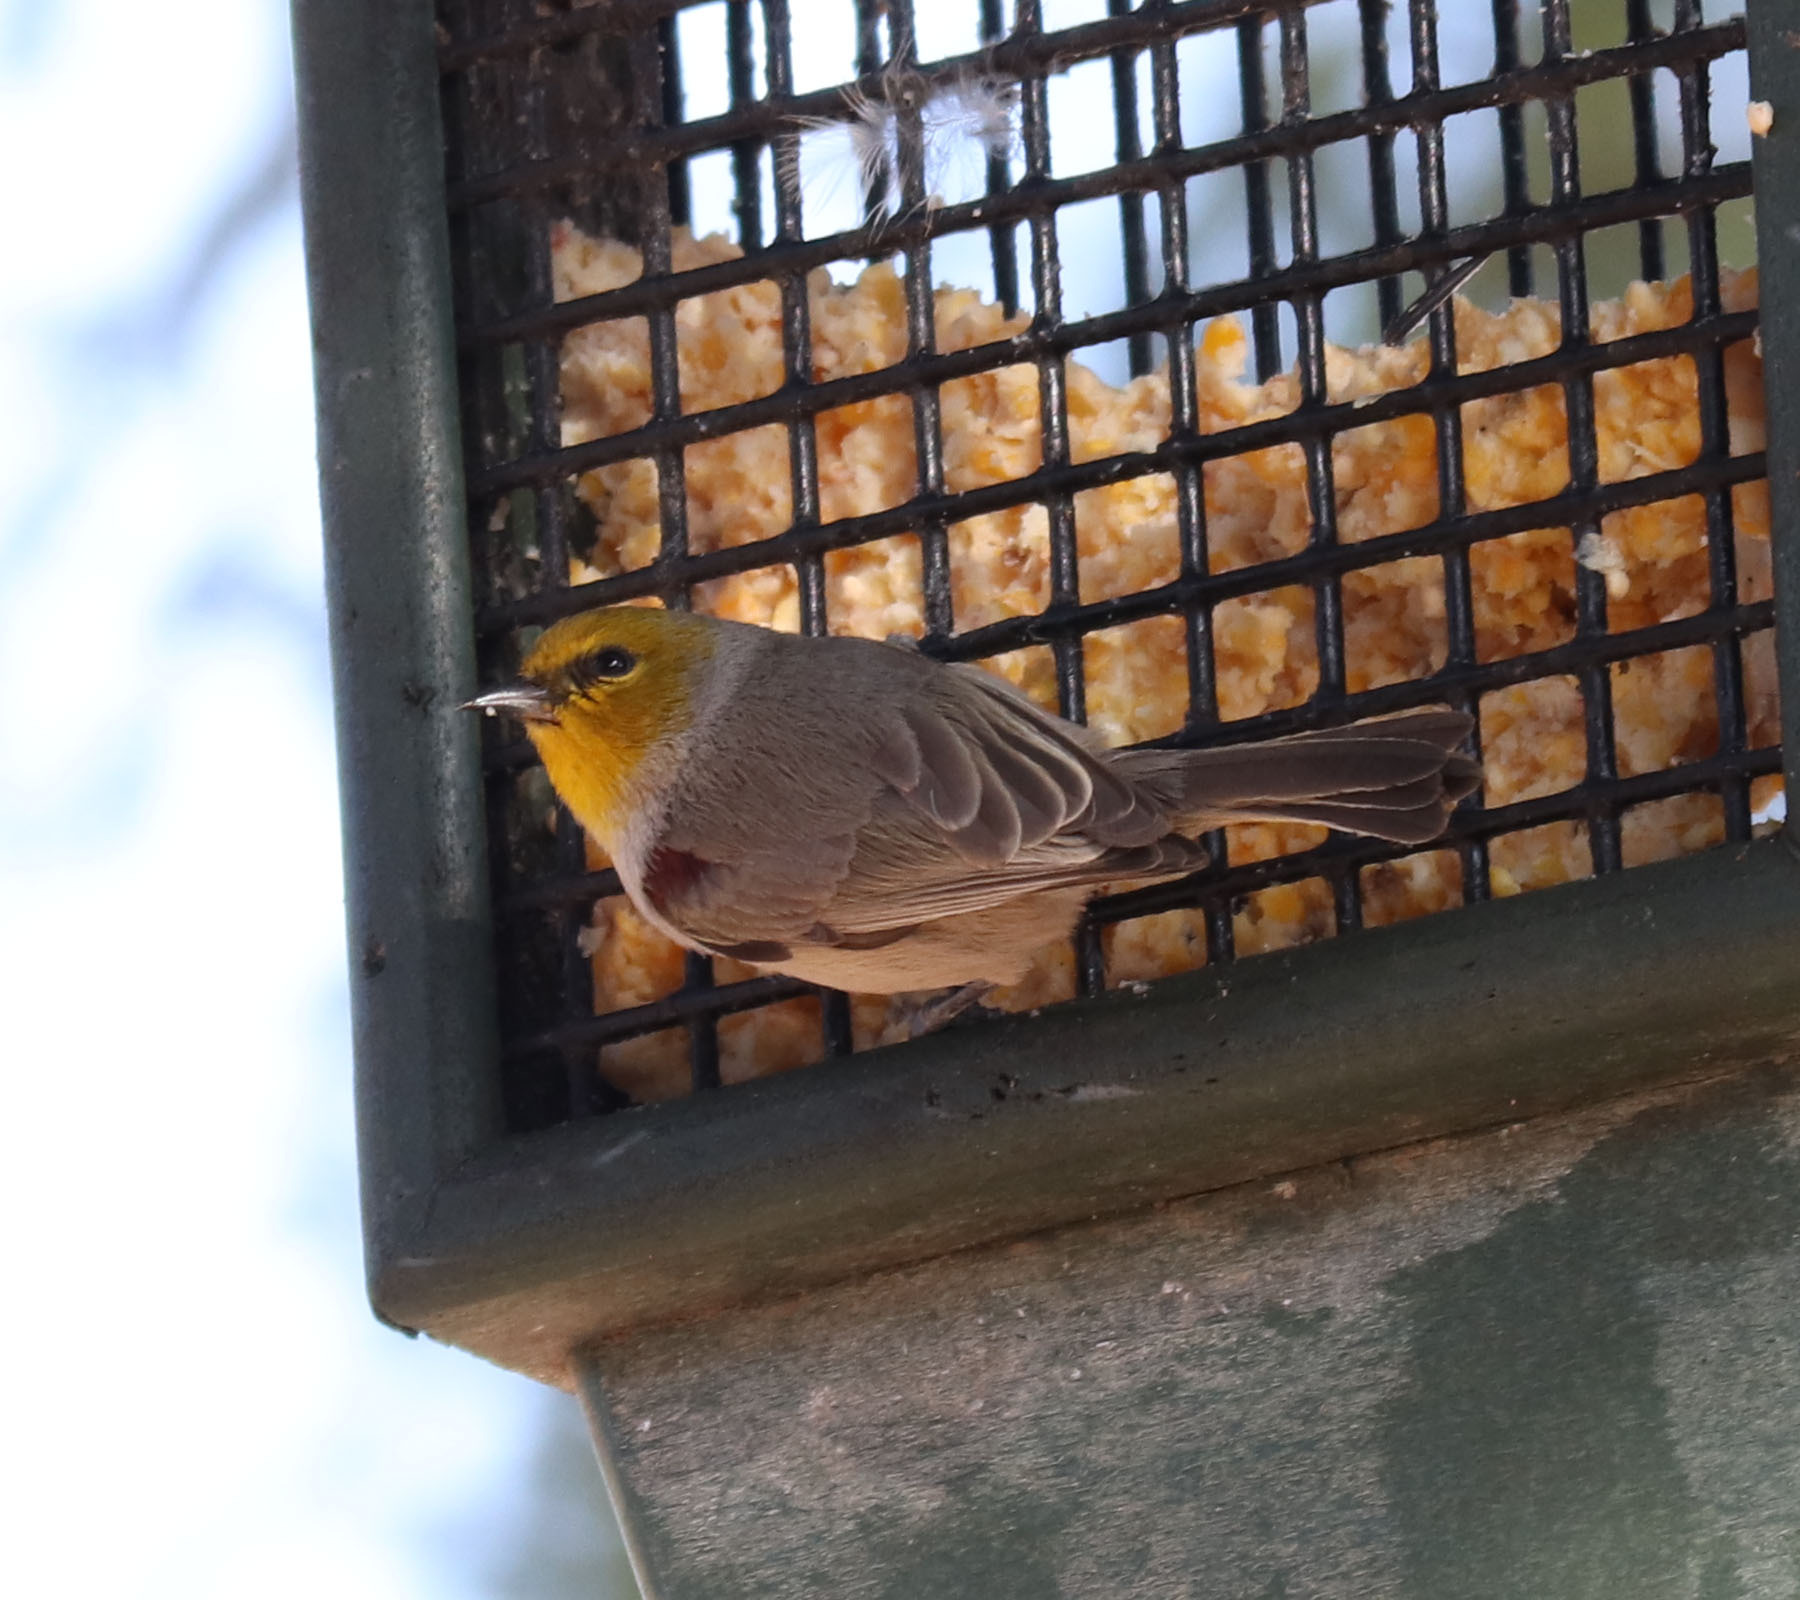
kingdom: Animalia
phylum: Chordata
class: Aves
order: Passeriformes
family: Remizidae
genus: Auriparus
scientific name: Auriparus flaviceps
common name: Verdin
